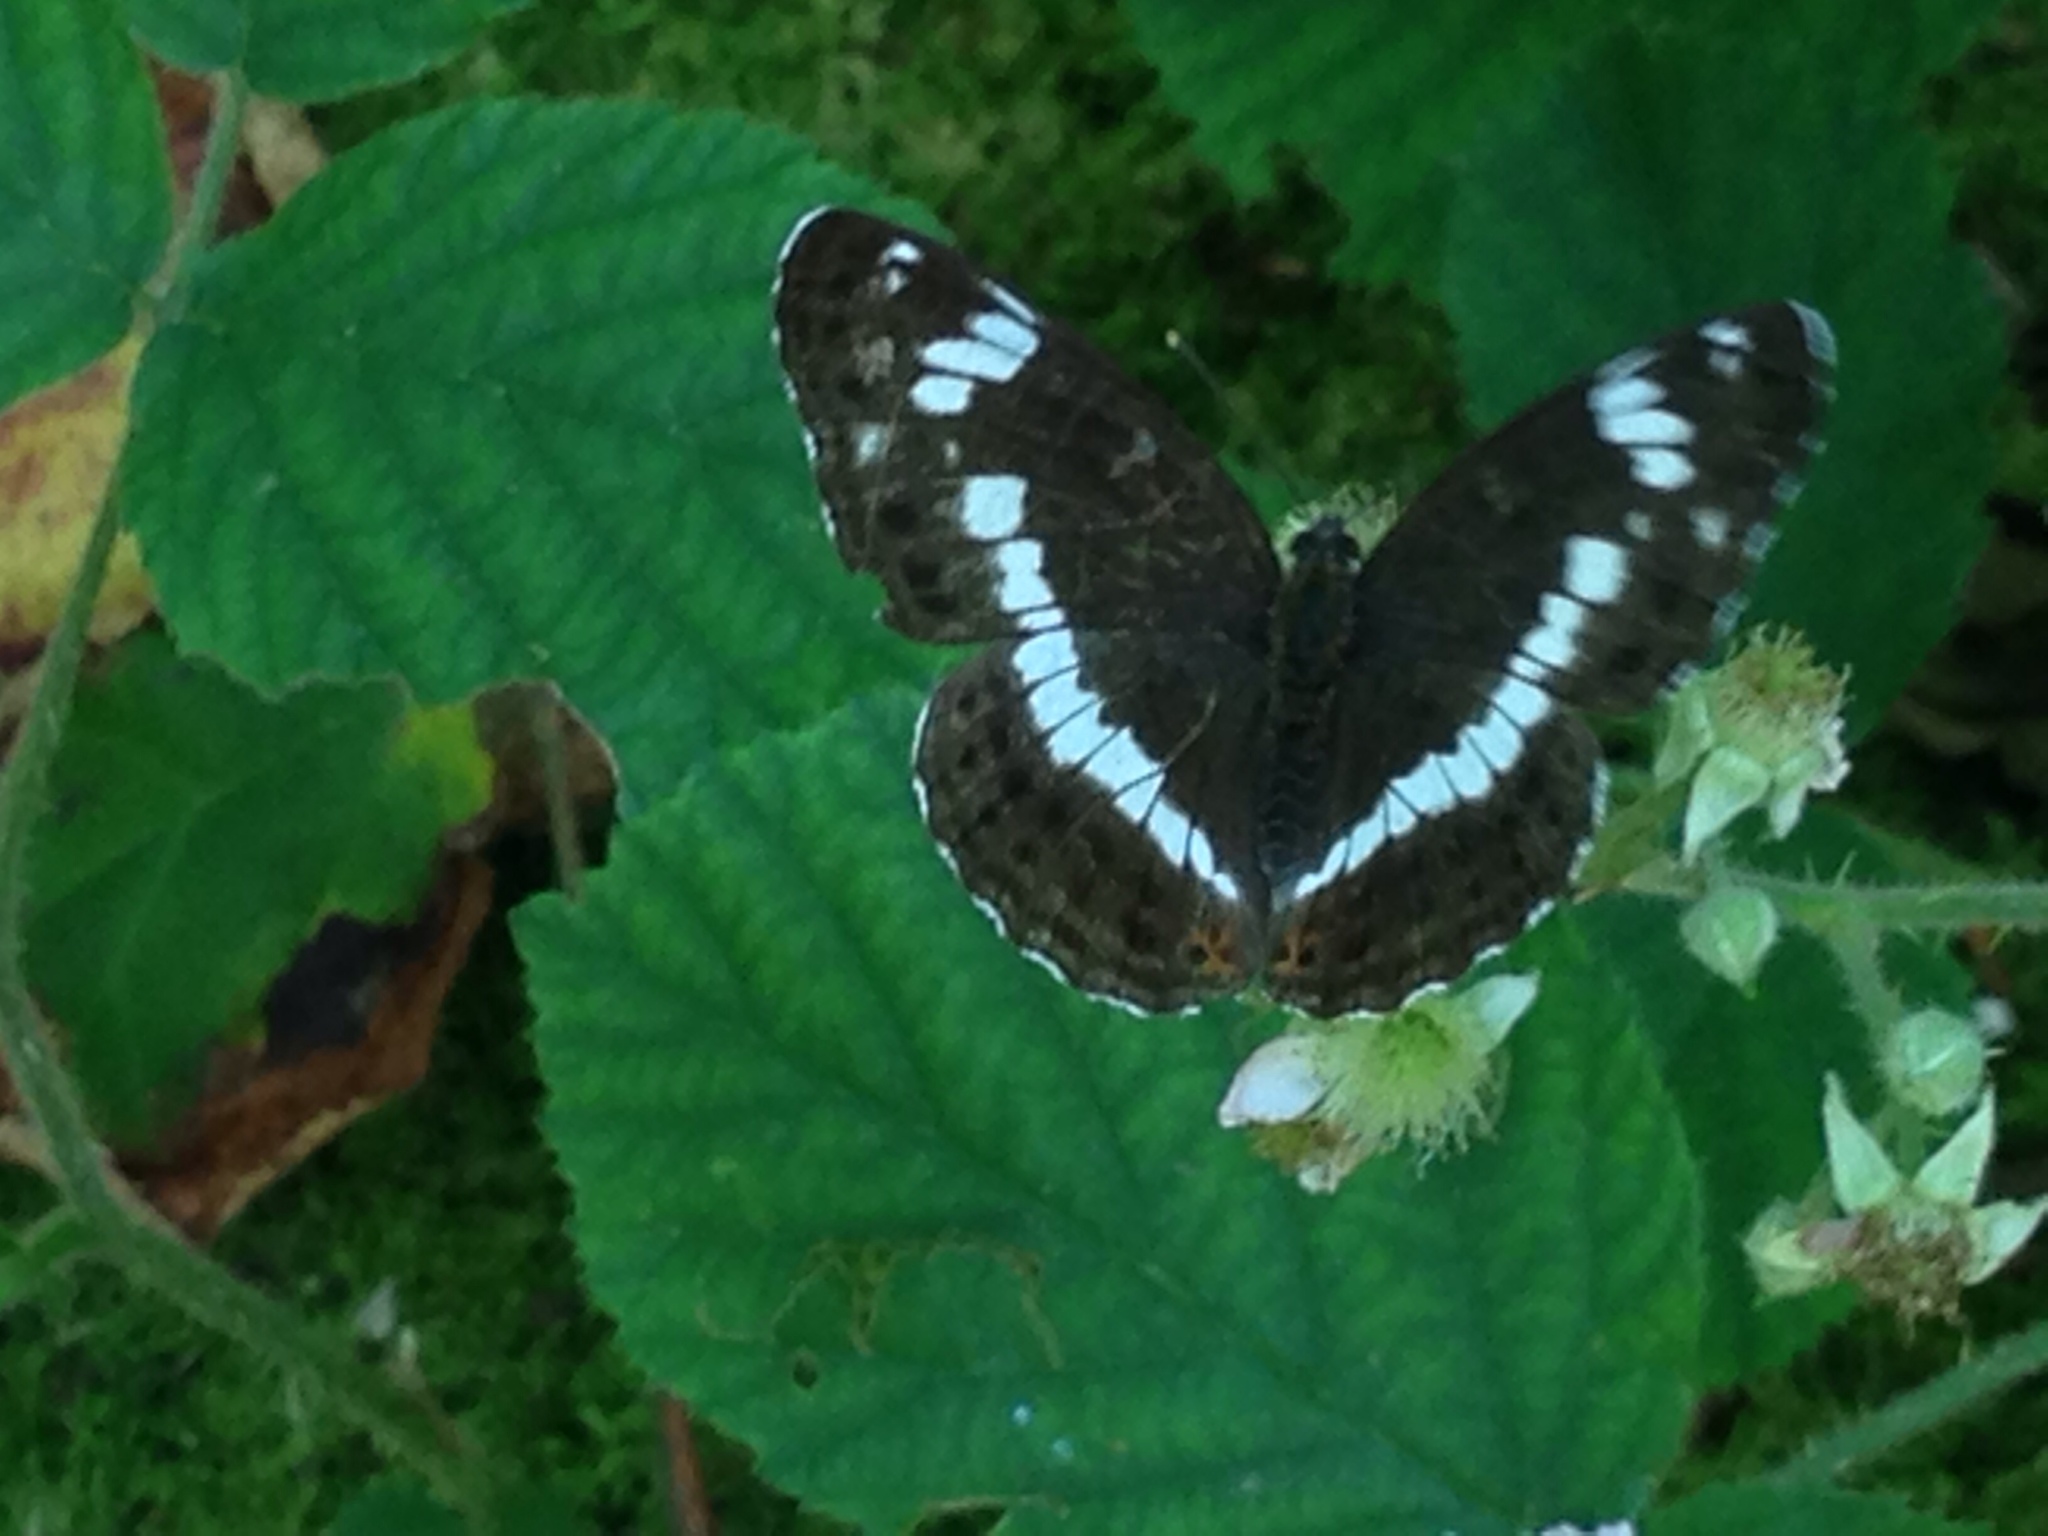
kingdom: Animalia
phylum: Arthropoda
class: Insecta
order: Lepidoptera
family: Nymphalidae
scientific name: Nymphalidae
